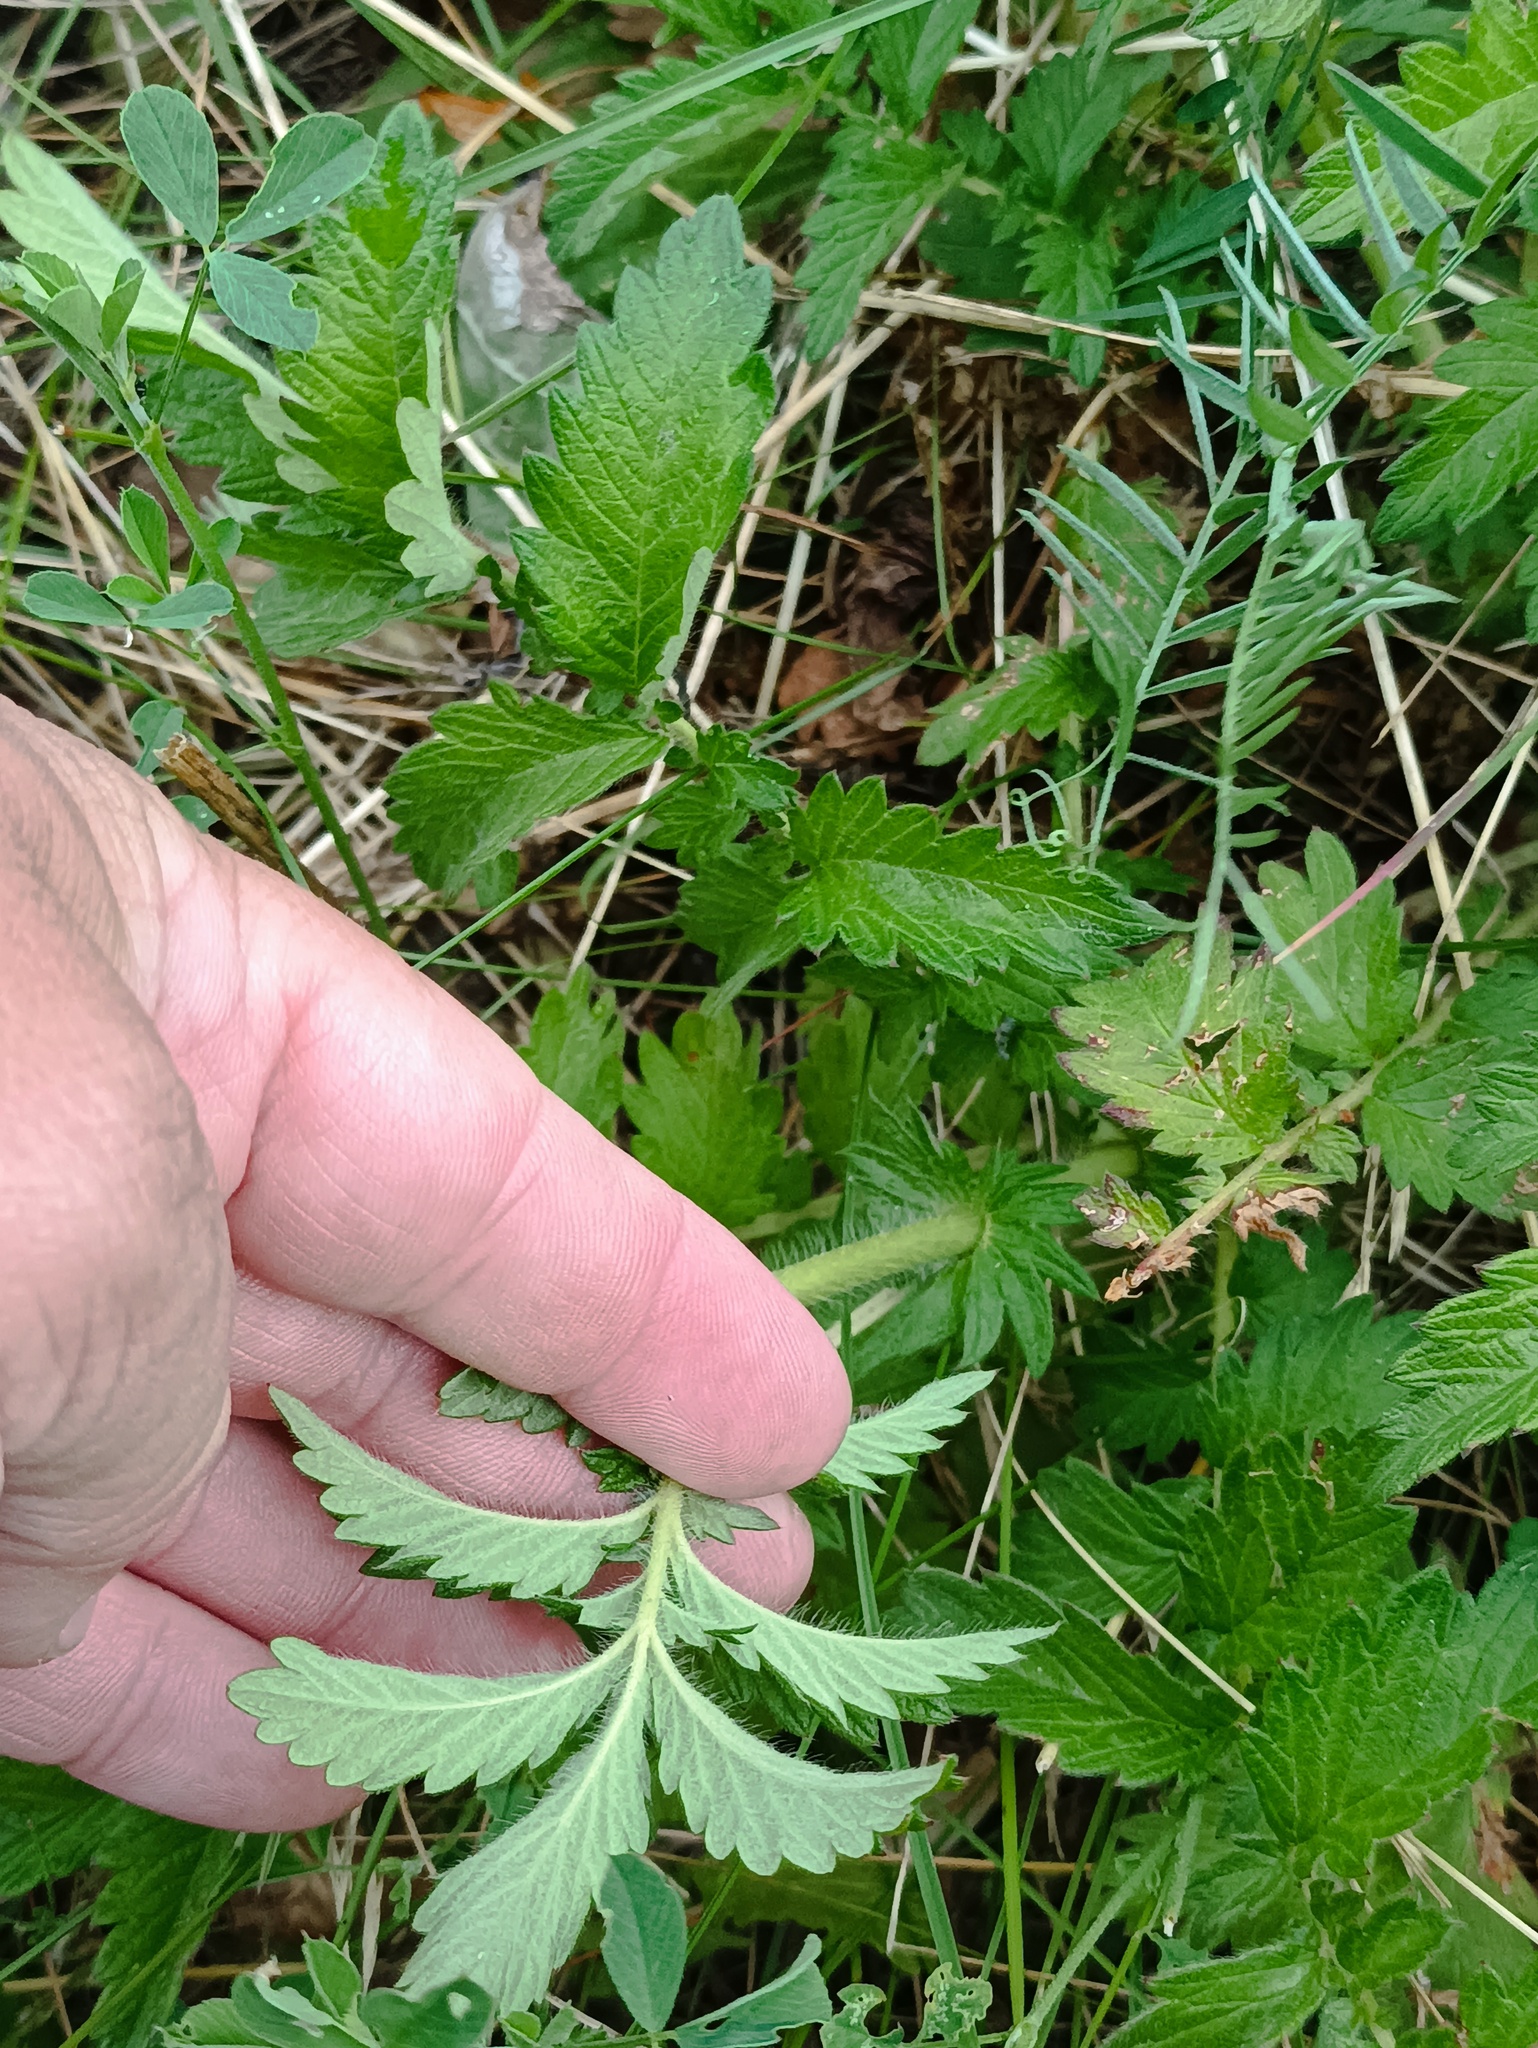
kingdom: Plantae
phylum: Tracheophyta
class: Magnoliopsida
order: Rosales
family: Rosaceae
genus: Agrimonia
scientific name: Agrimonia eupatoria
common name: Agrimony
